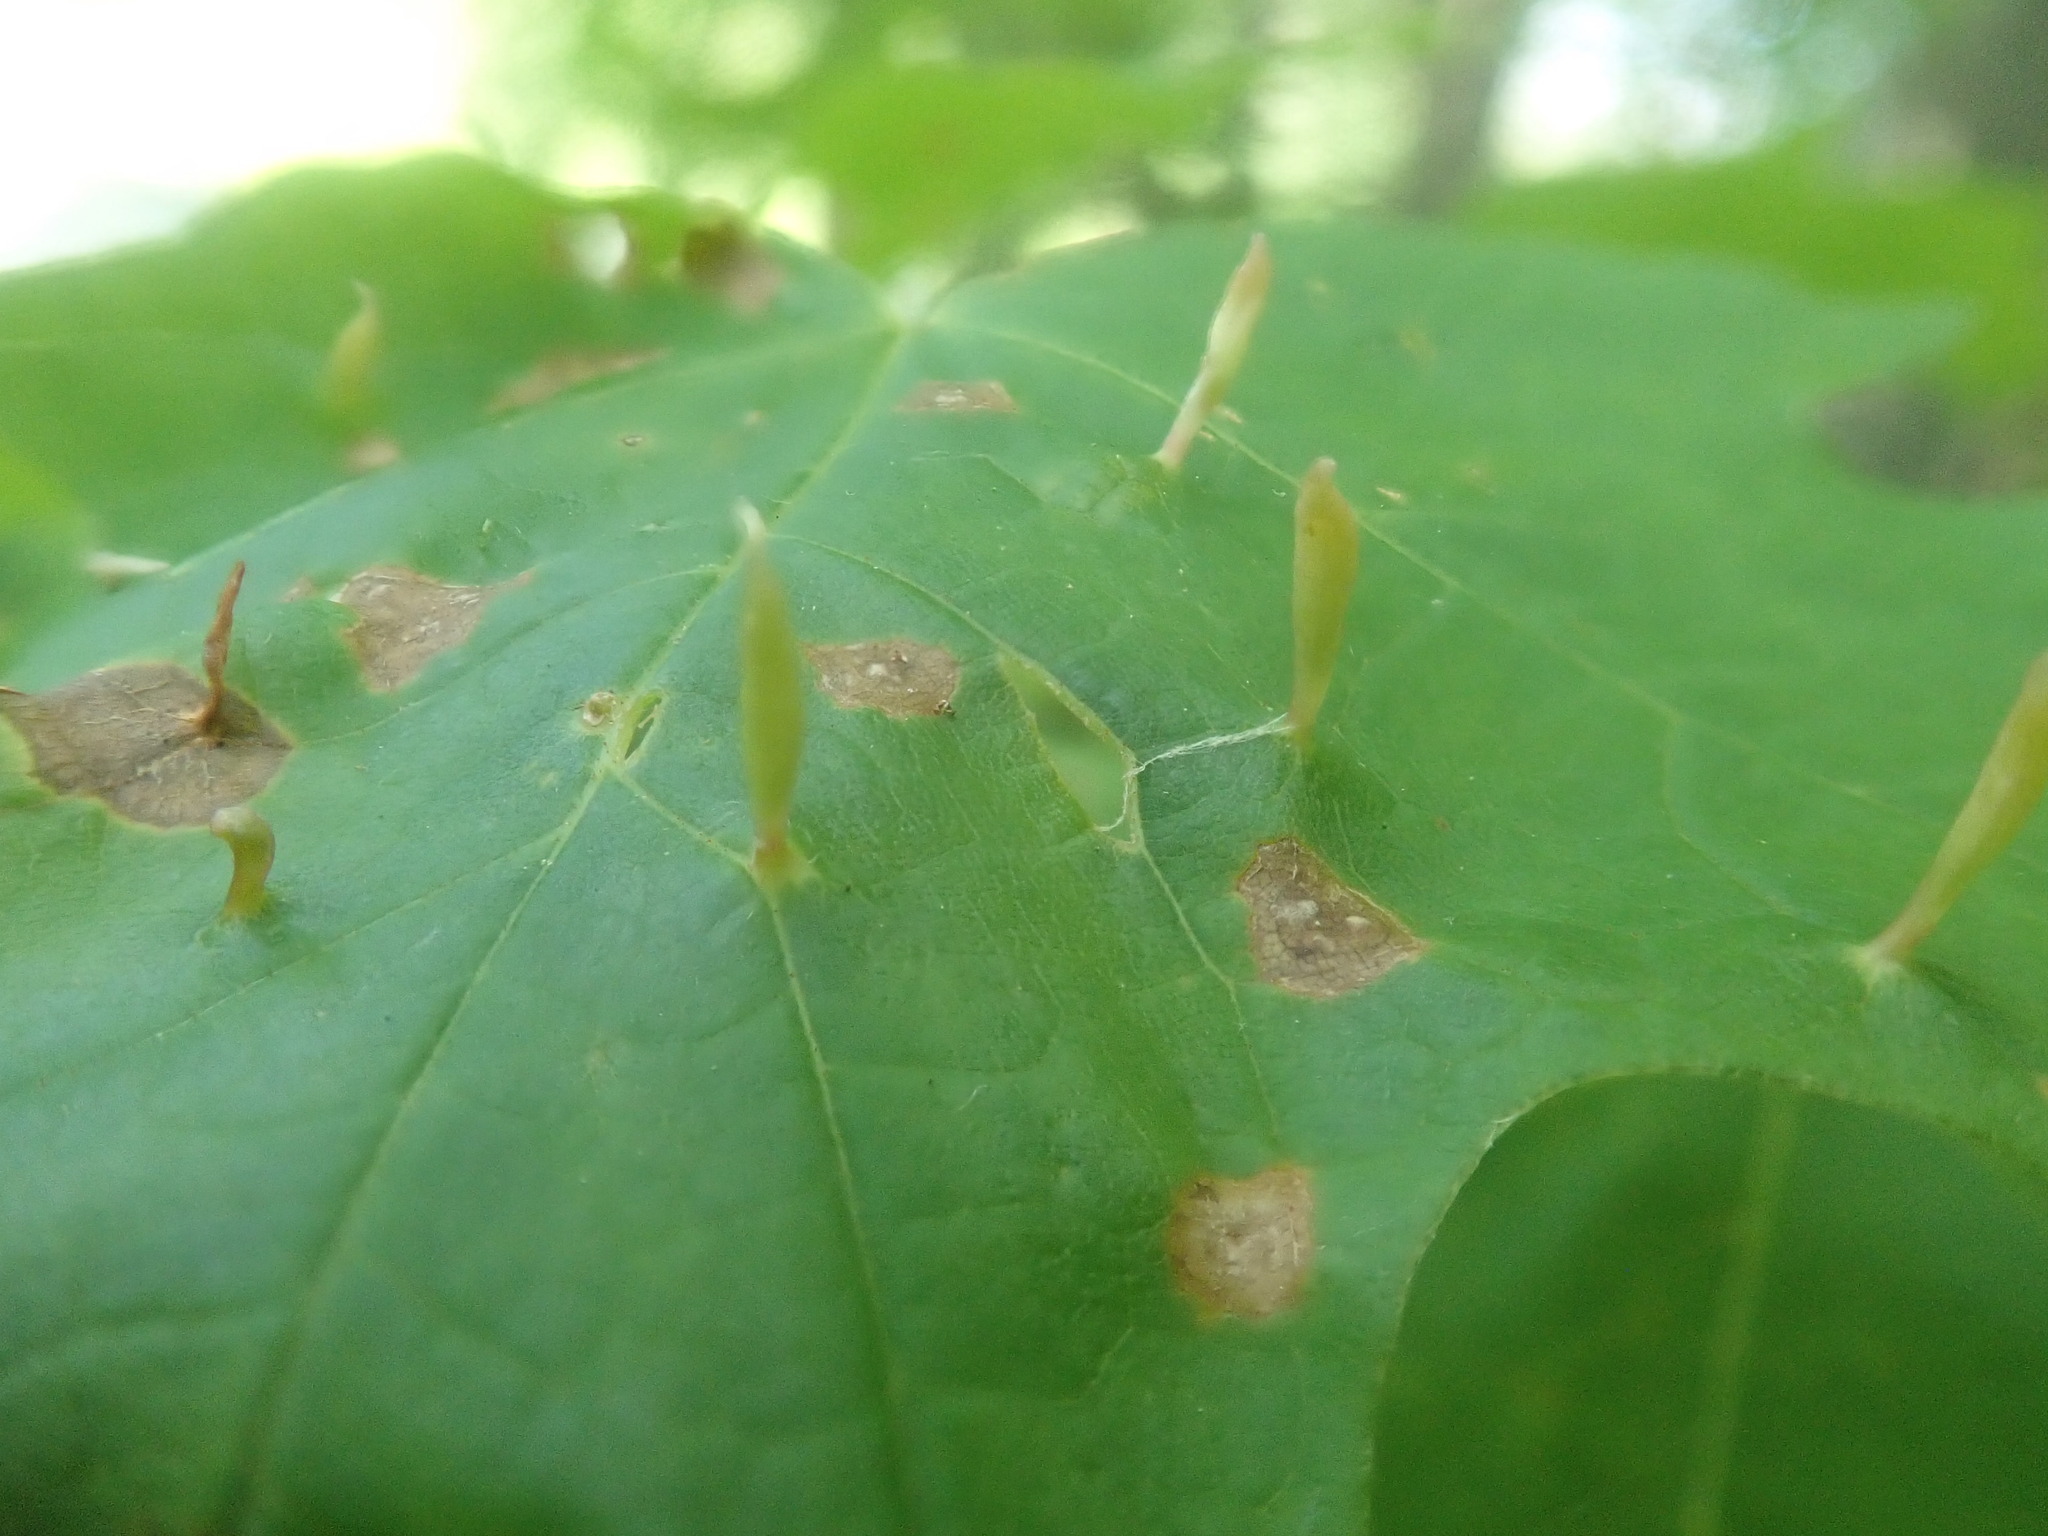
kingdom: Animalia
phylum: Arthropoda
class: Arachnida
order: Trombidiformes
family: Eriophyidae
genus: Vasates
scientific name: Vasates aceriscrumena
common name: Maple spindle gall mite
